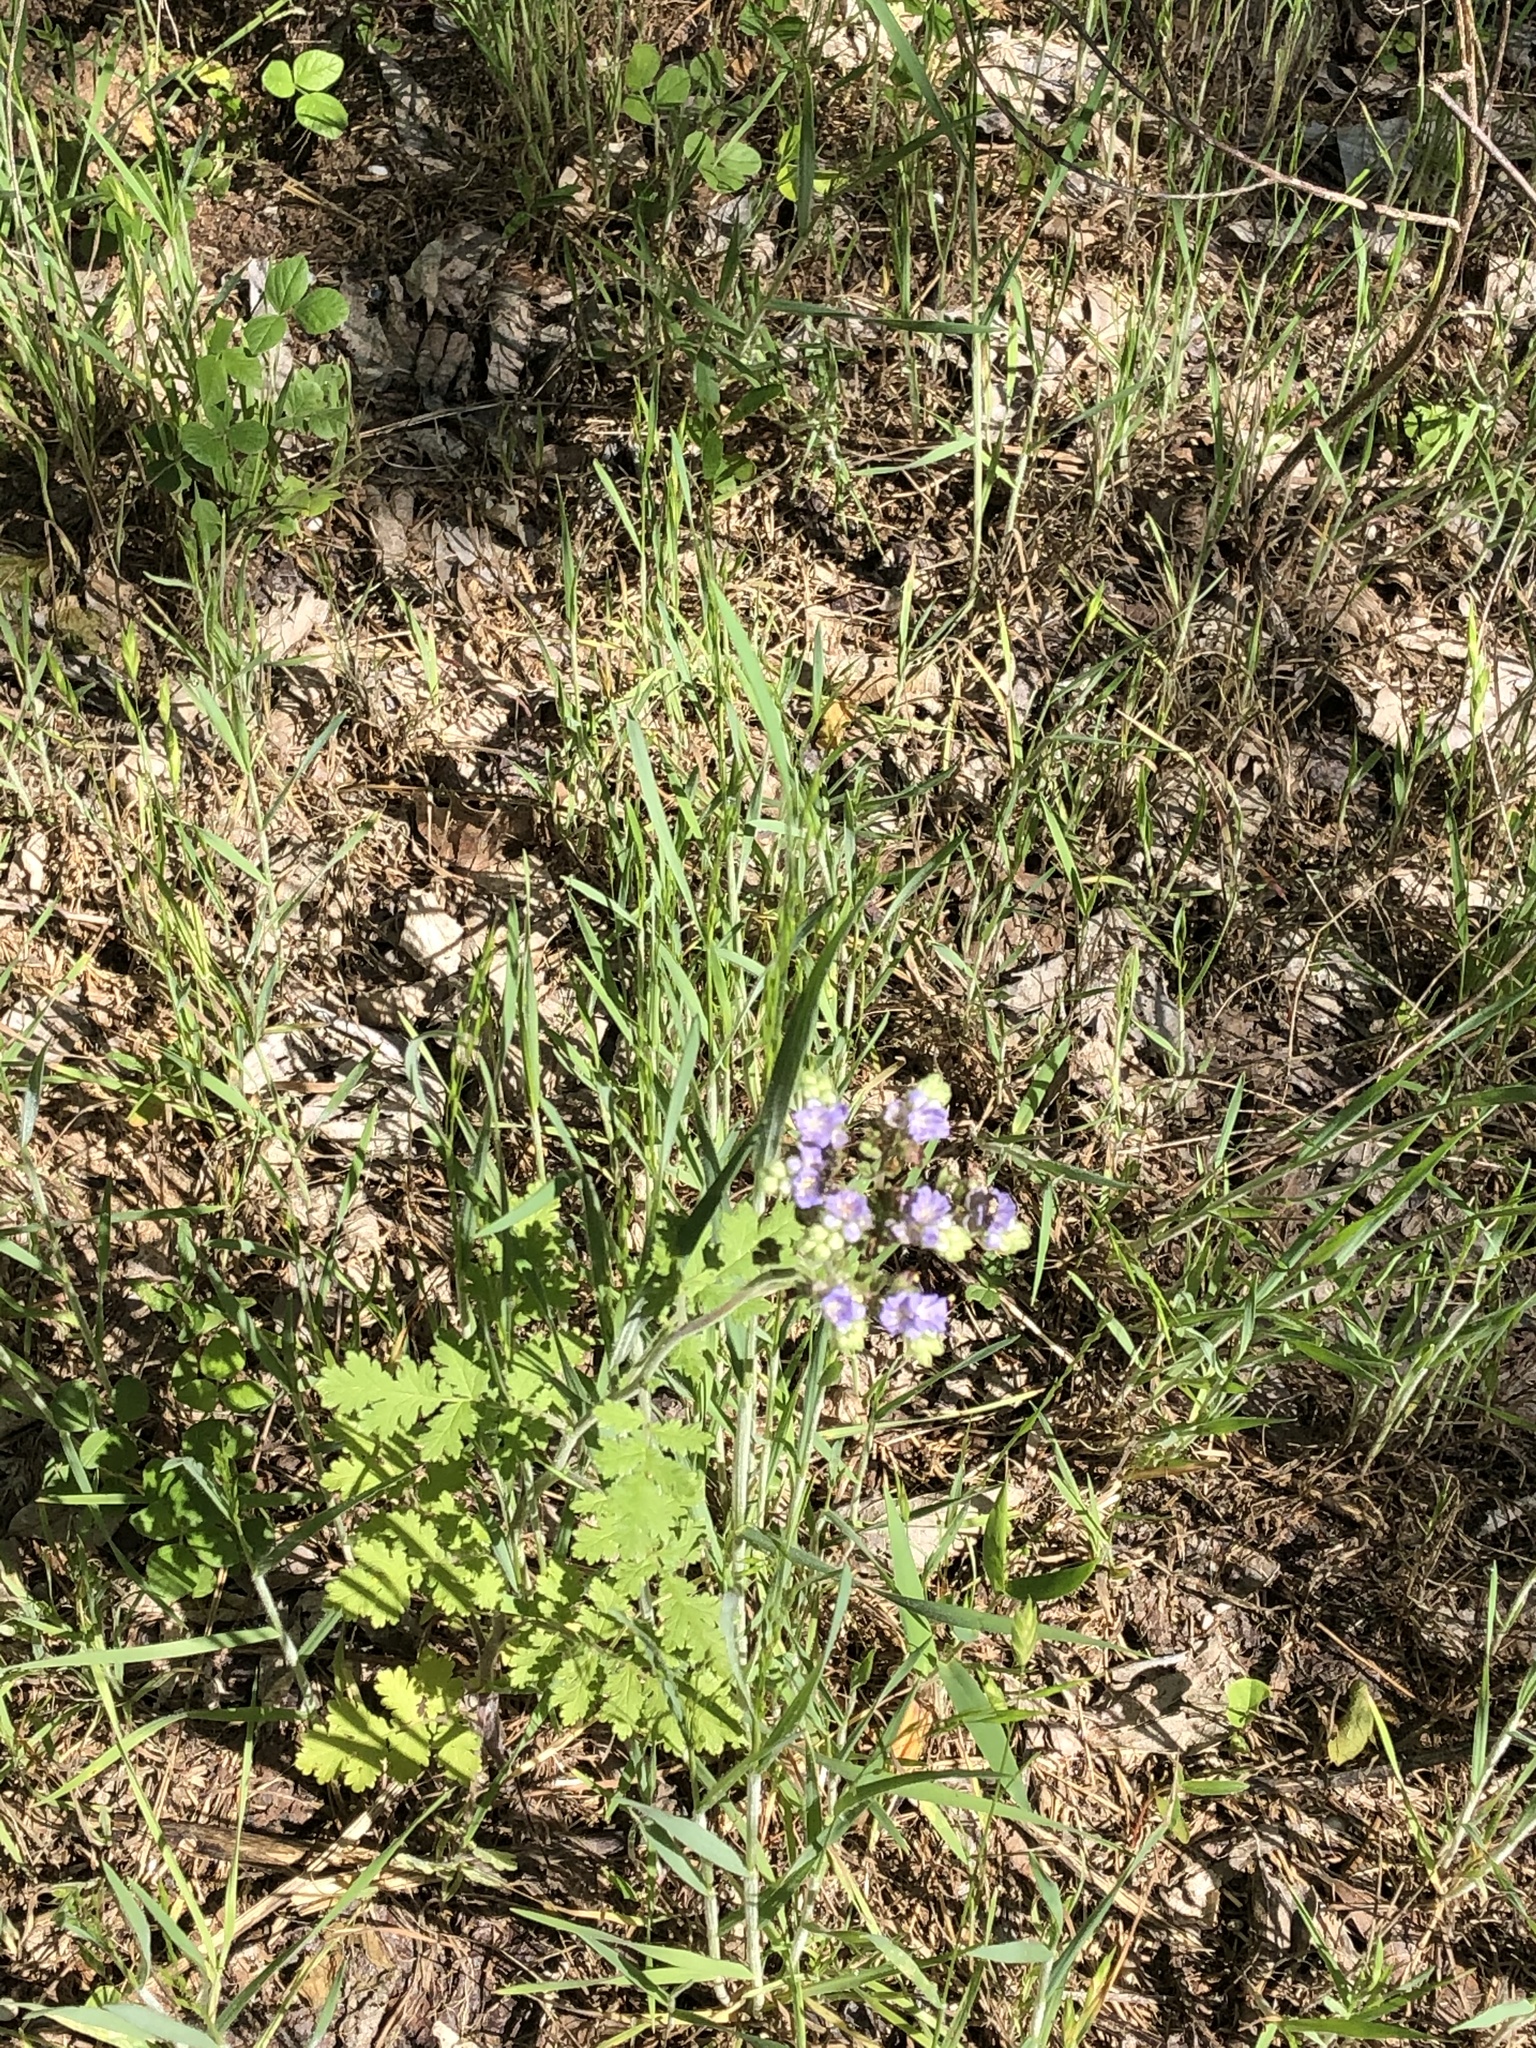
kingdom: Plantae
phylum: Tracheophyta
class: Magnoliopsida
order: Boraginales
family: Hydrophyllaceae
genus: Phacelia
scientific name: Phacelia congesta
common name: Blue curls
